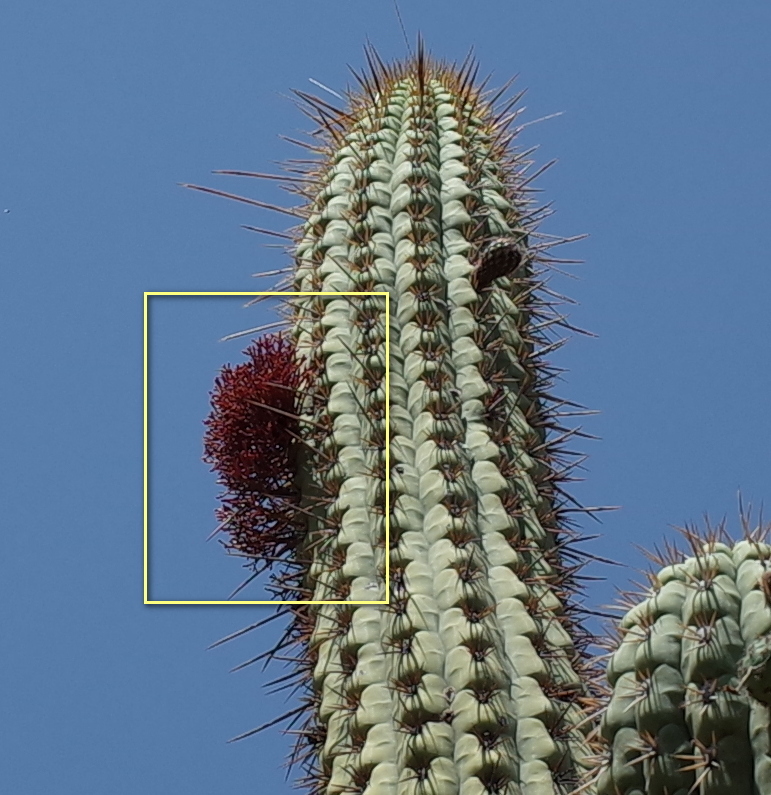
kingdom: Plantae
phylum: Tracheophyta
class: Magnoliopsida
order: Santalales
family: Loranthaceae
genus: Tristerix
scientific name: Tristerix aphyllus
